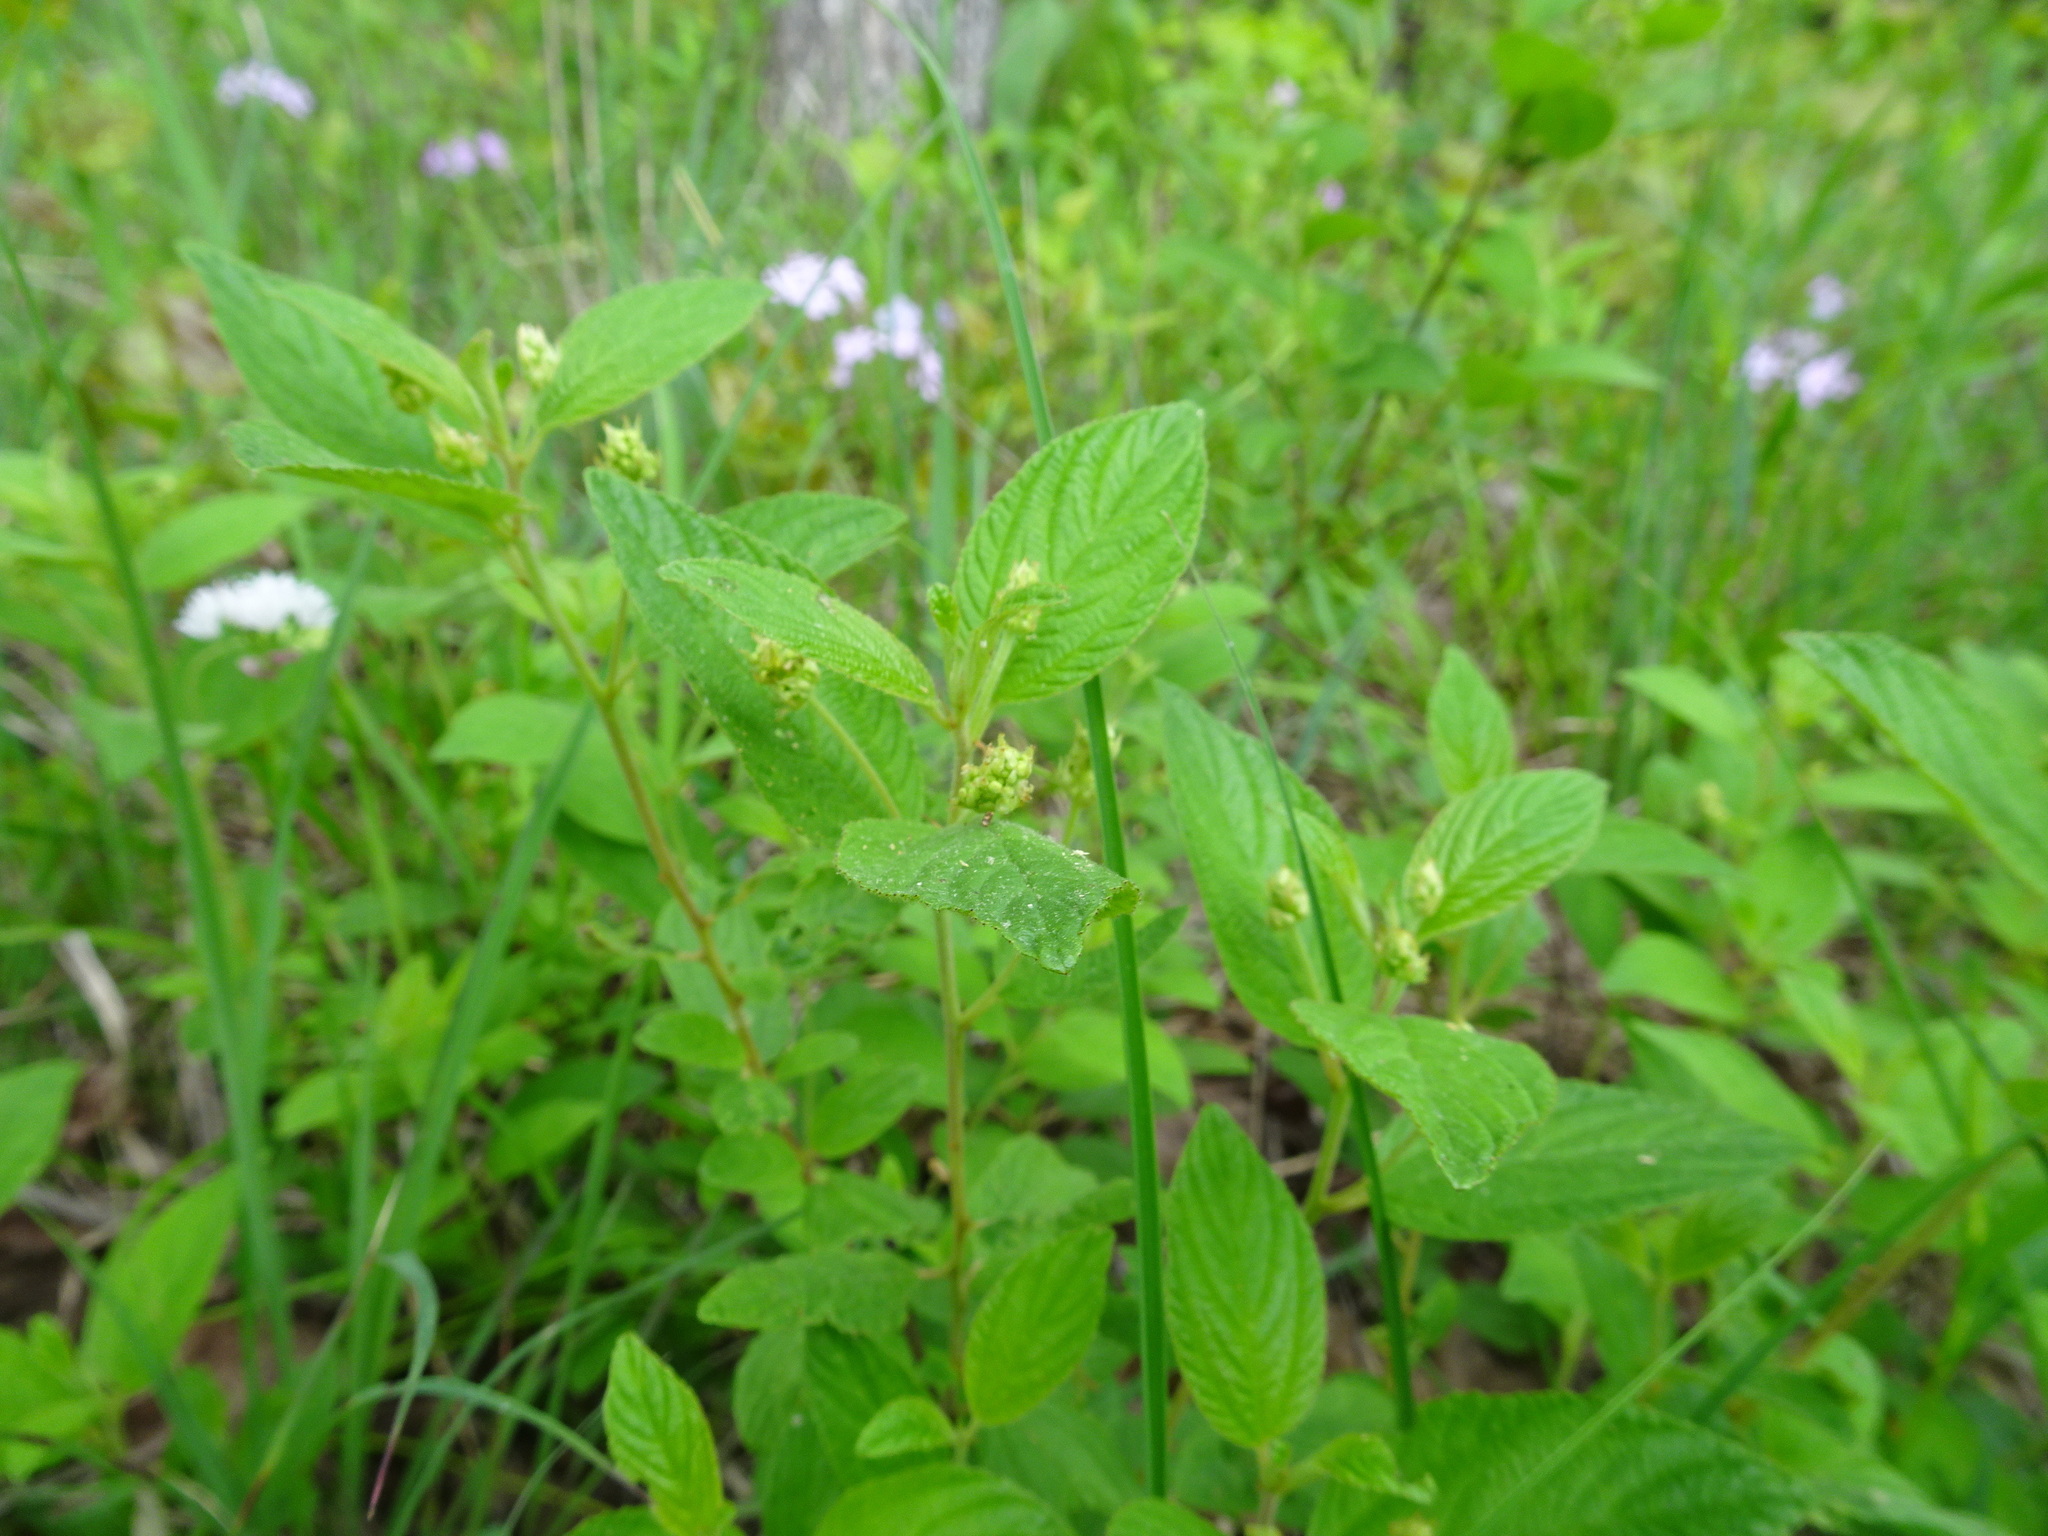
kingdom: Plantae
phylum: Tracheophyta
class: Magnoliopsida
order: Rosales
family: Rhamnaceae
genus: Ceanothus
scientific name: Ceanothus americanus
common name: Redroot
